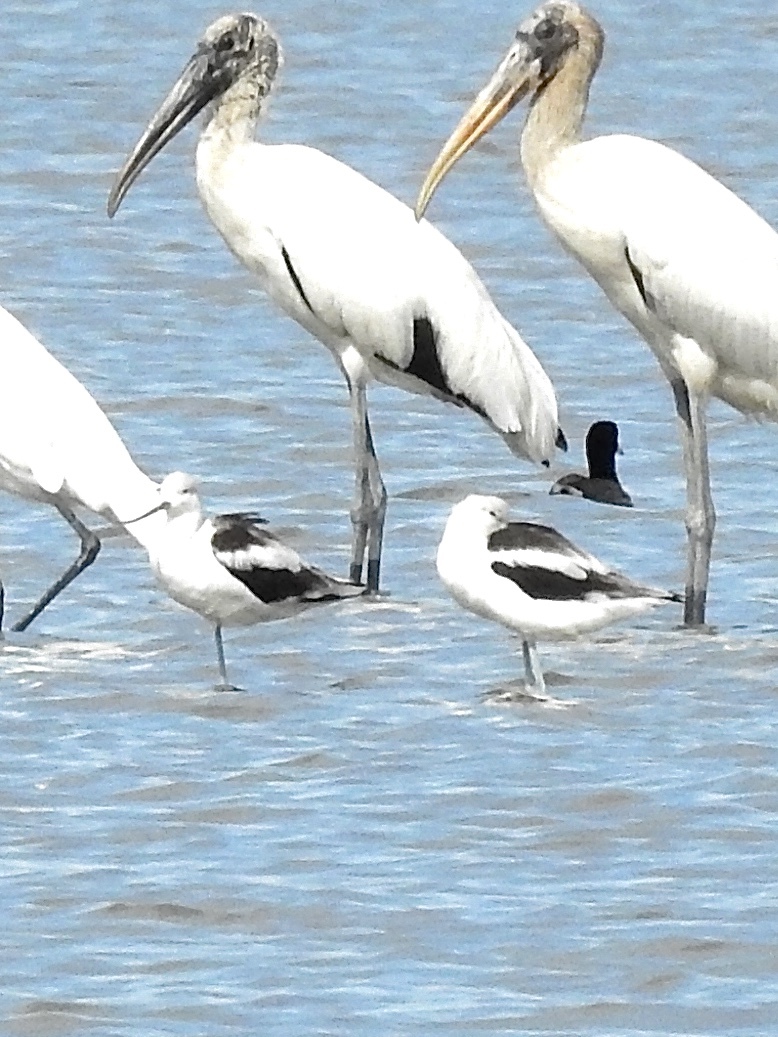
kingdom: Animalia
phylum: Chordata
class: Aves
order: Charadriiformes
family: Recurvirostridae
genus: Recurvirostra
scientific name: Recurvirostra americana
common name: American avocet
